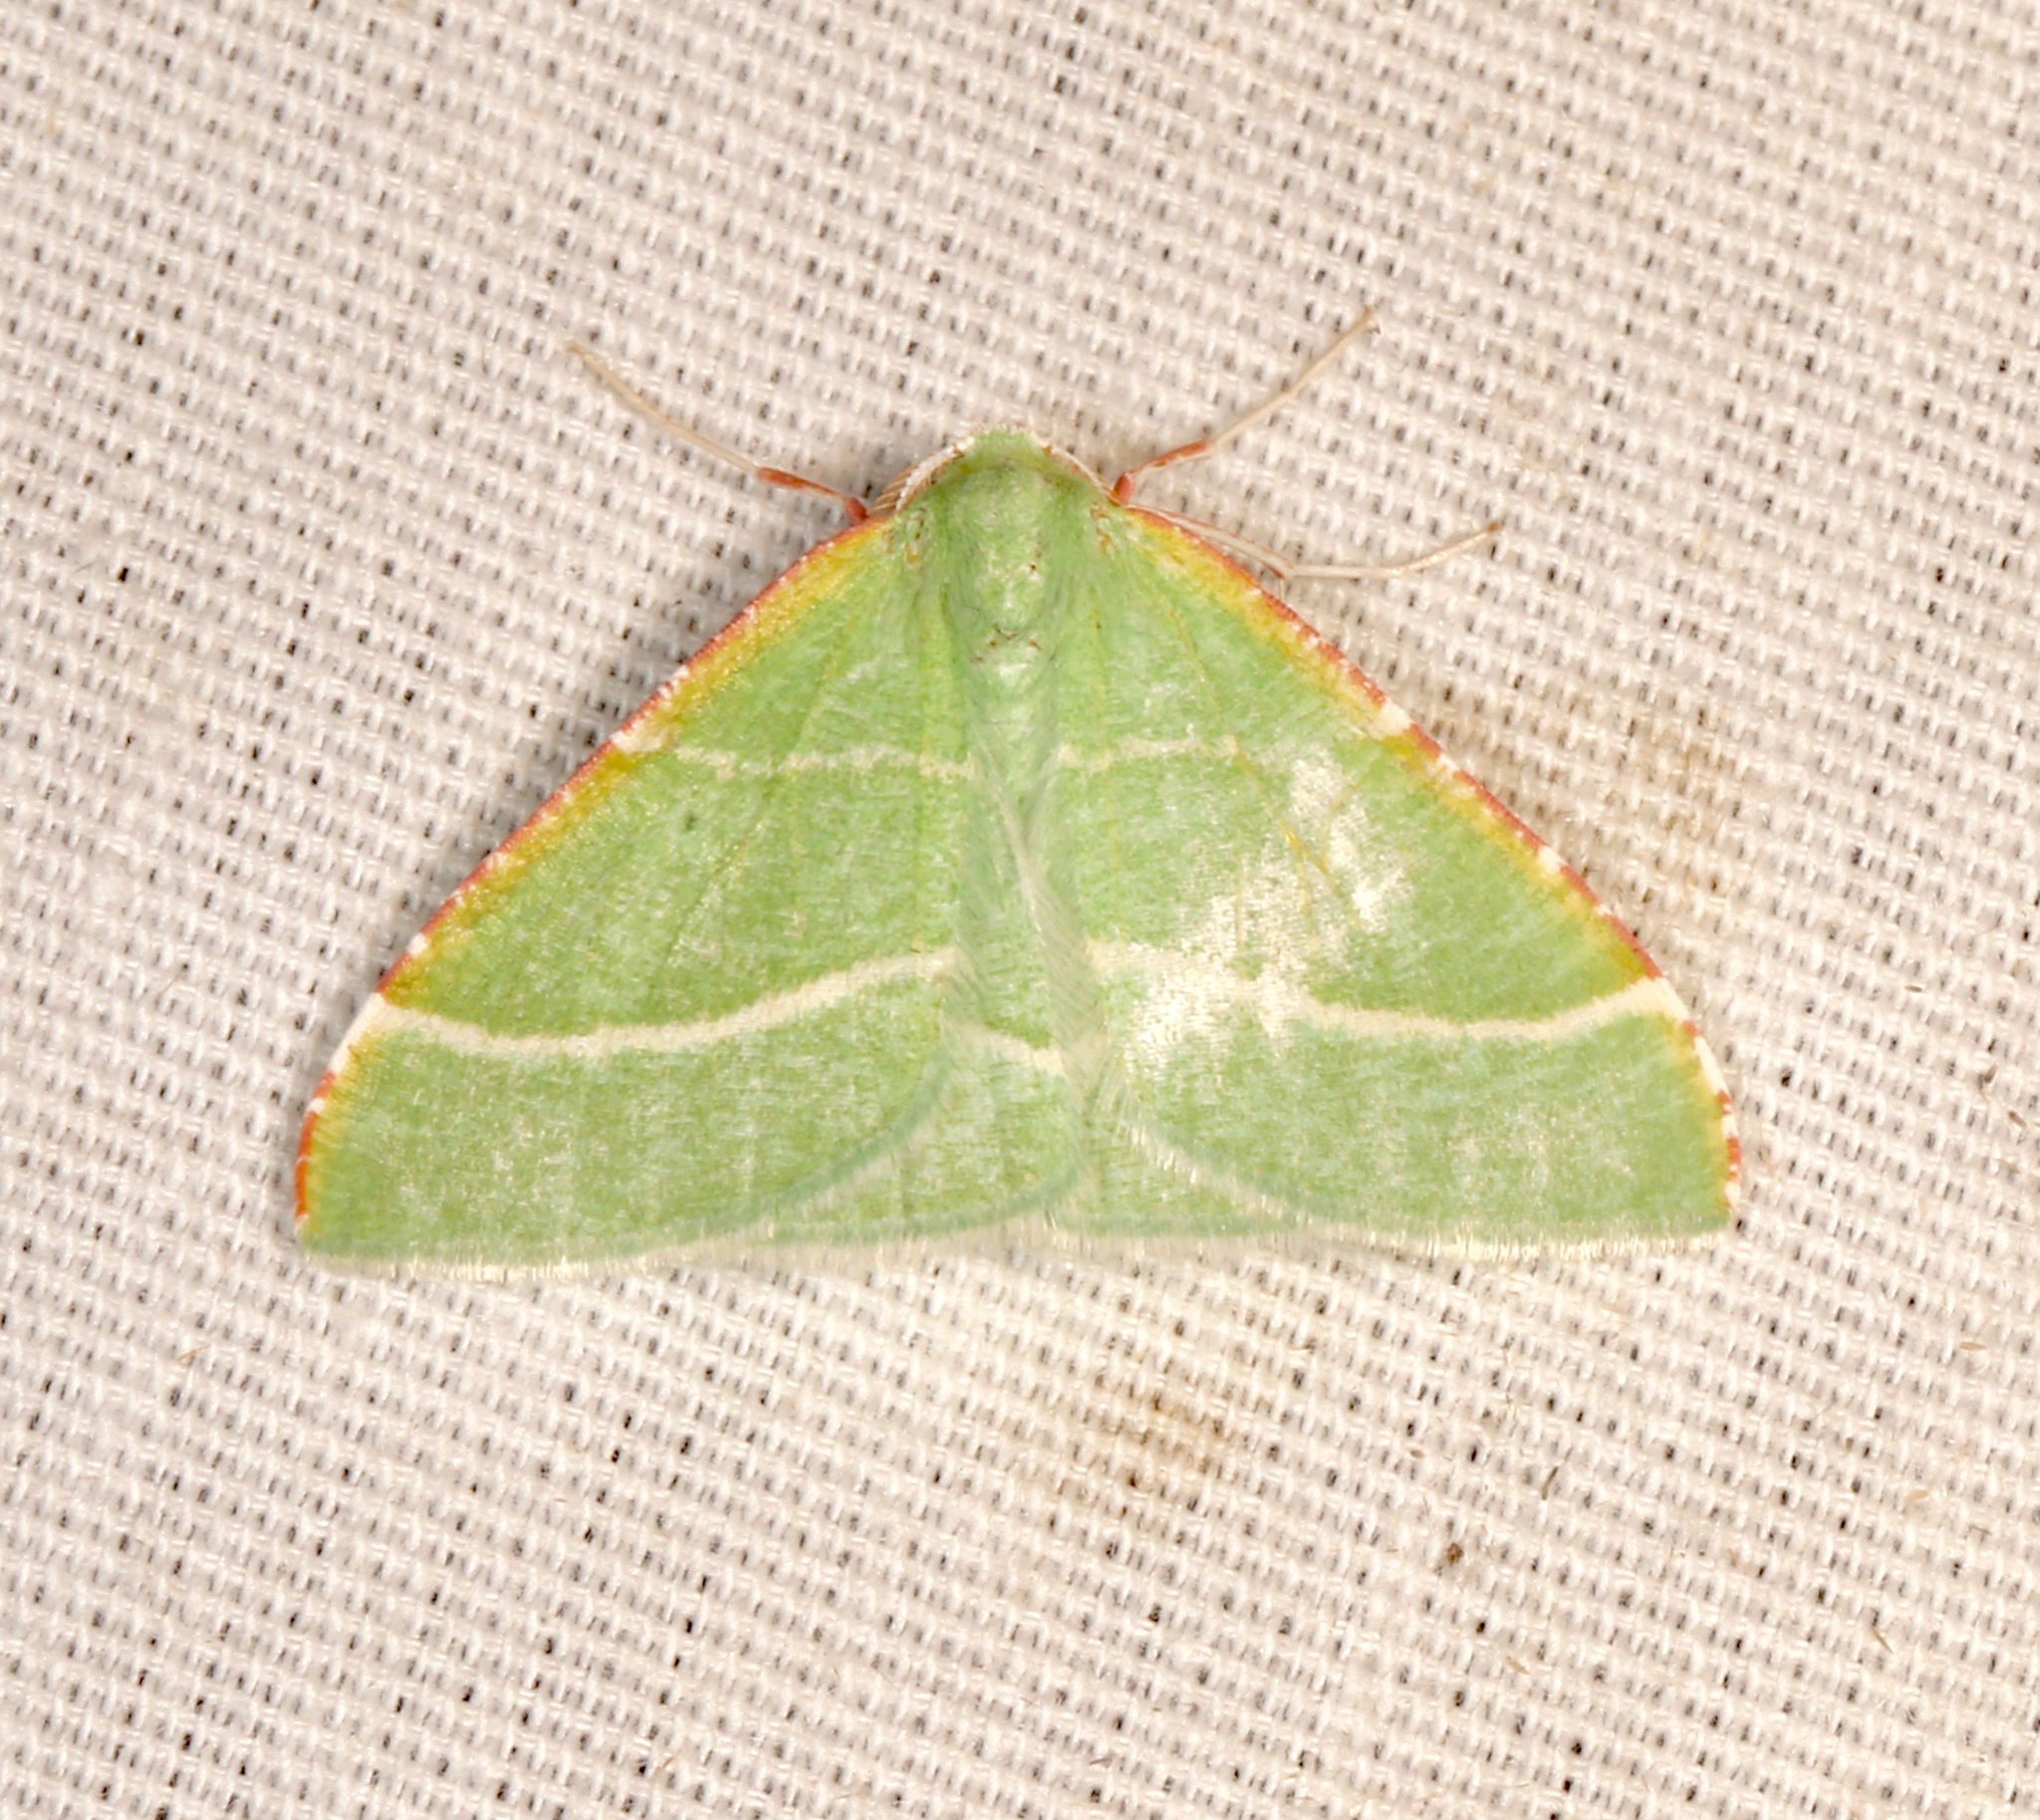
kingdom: Animalia
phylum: Arthropoda
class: Insecta
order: Lepidoptera
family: Geometridae
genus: Dichordophora
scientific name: Dichordophora phoenix
